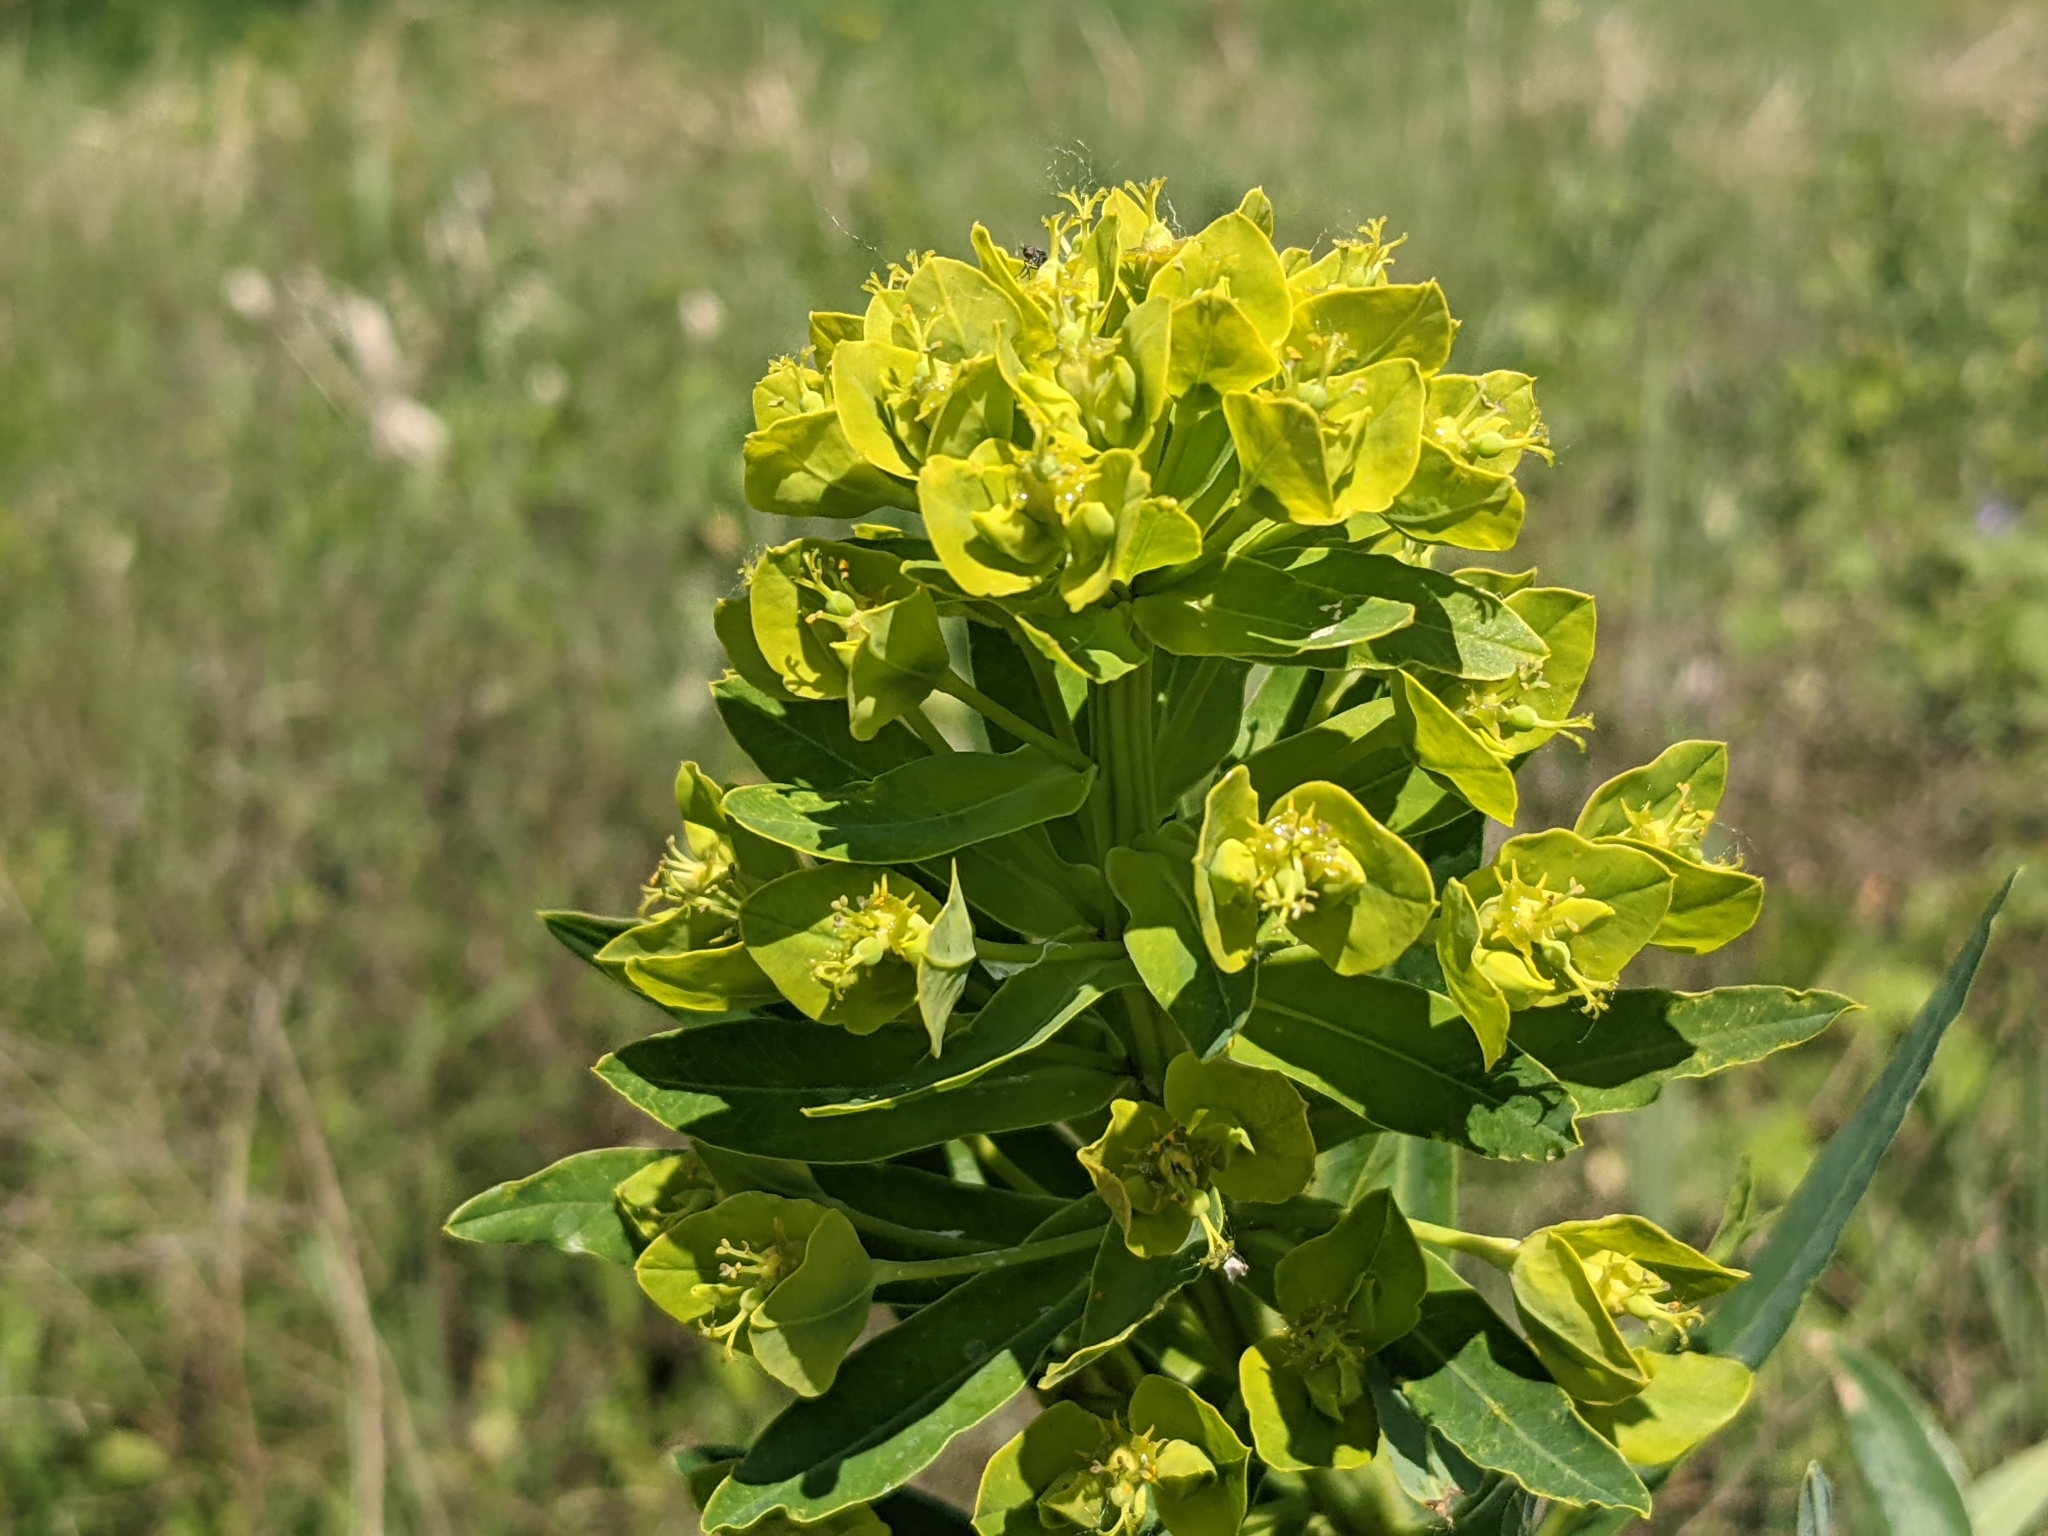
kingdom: Plantae
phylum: Tracheophyta
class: Magnoliopsida
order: Malpighiales
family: Euphorbiaceae
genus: Euphorbia
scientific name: Euphorbia lucida
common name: Shining spurge
